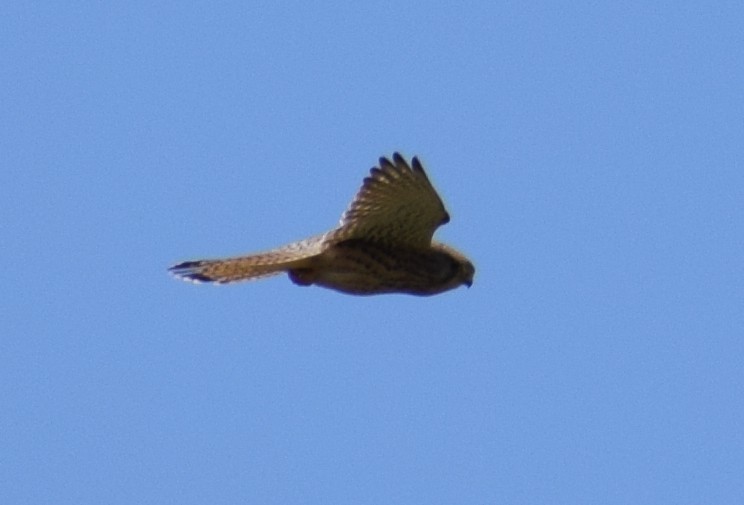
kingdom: Animalia
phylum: Chordata
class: Aves
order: Falconiformes
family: Falconidae
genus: Falco
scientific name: Falco tinnunculus
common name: Common kestrel
